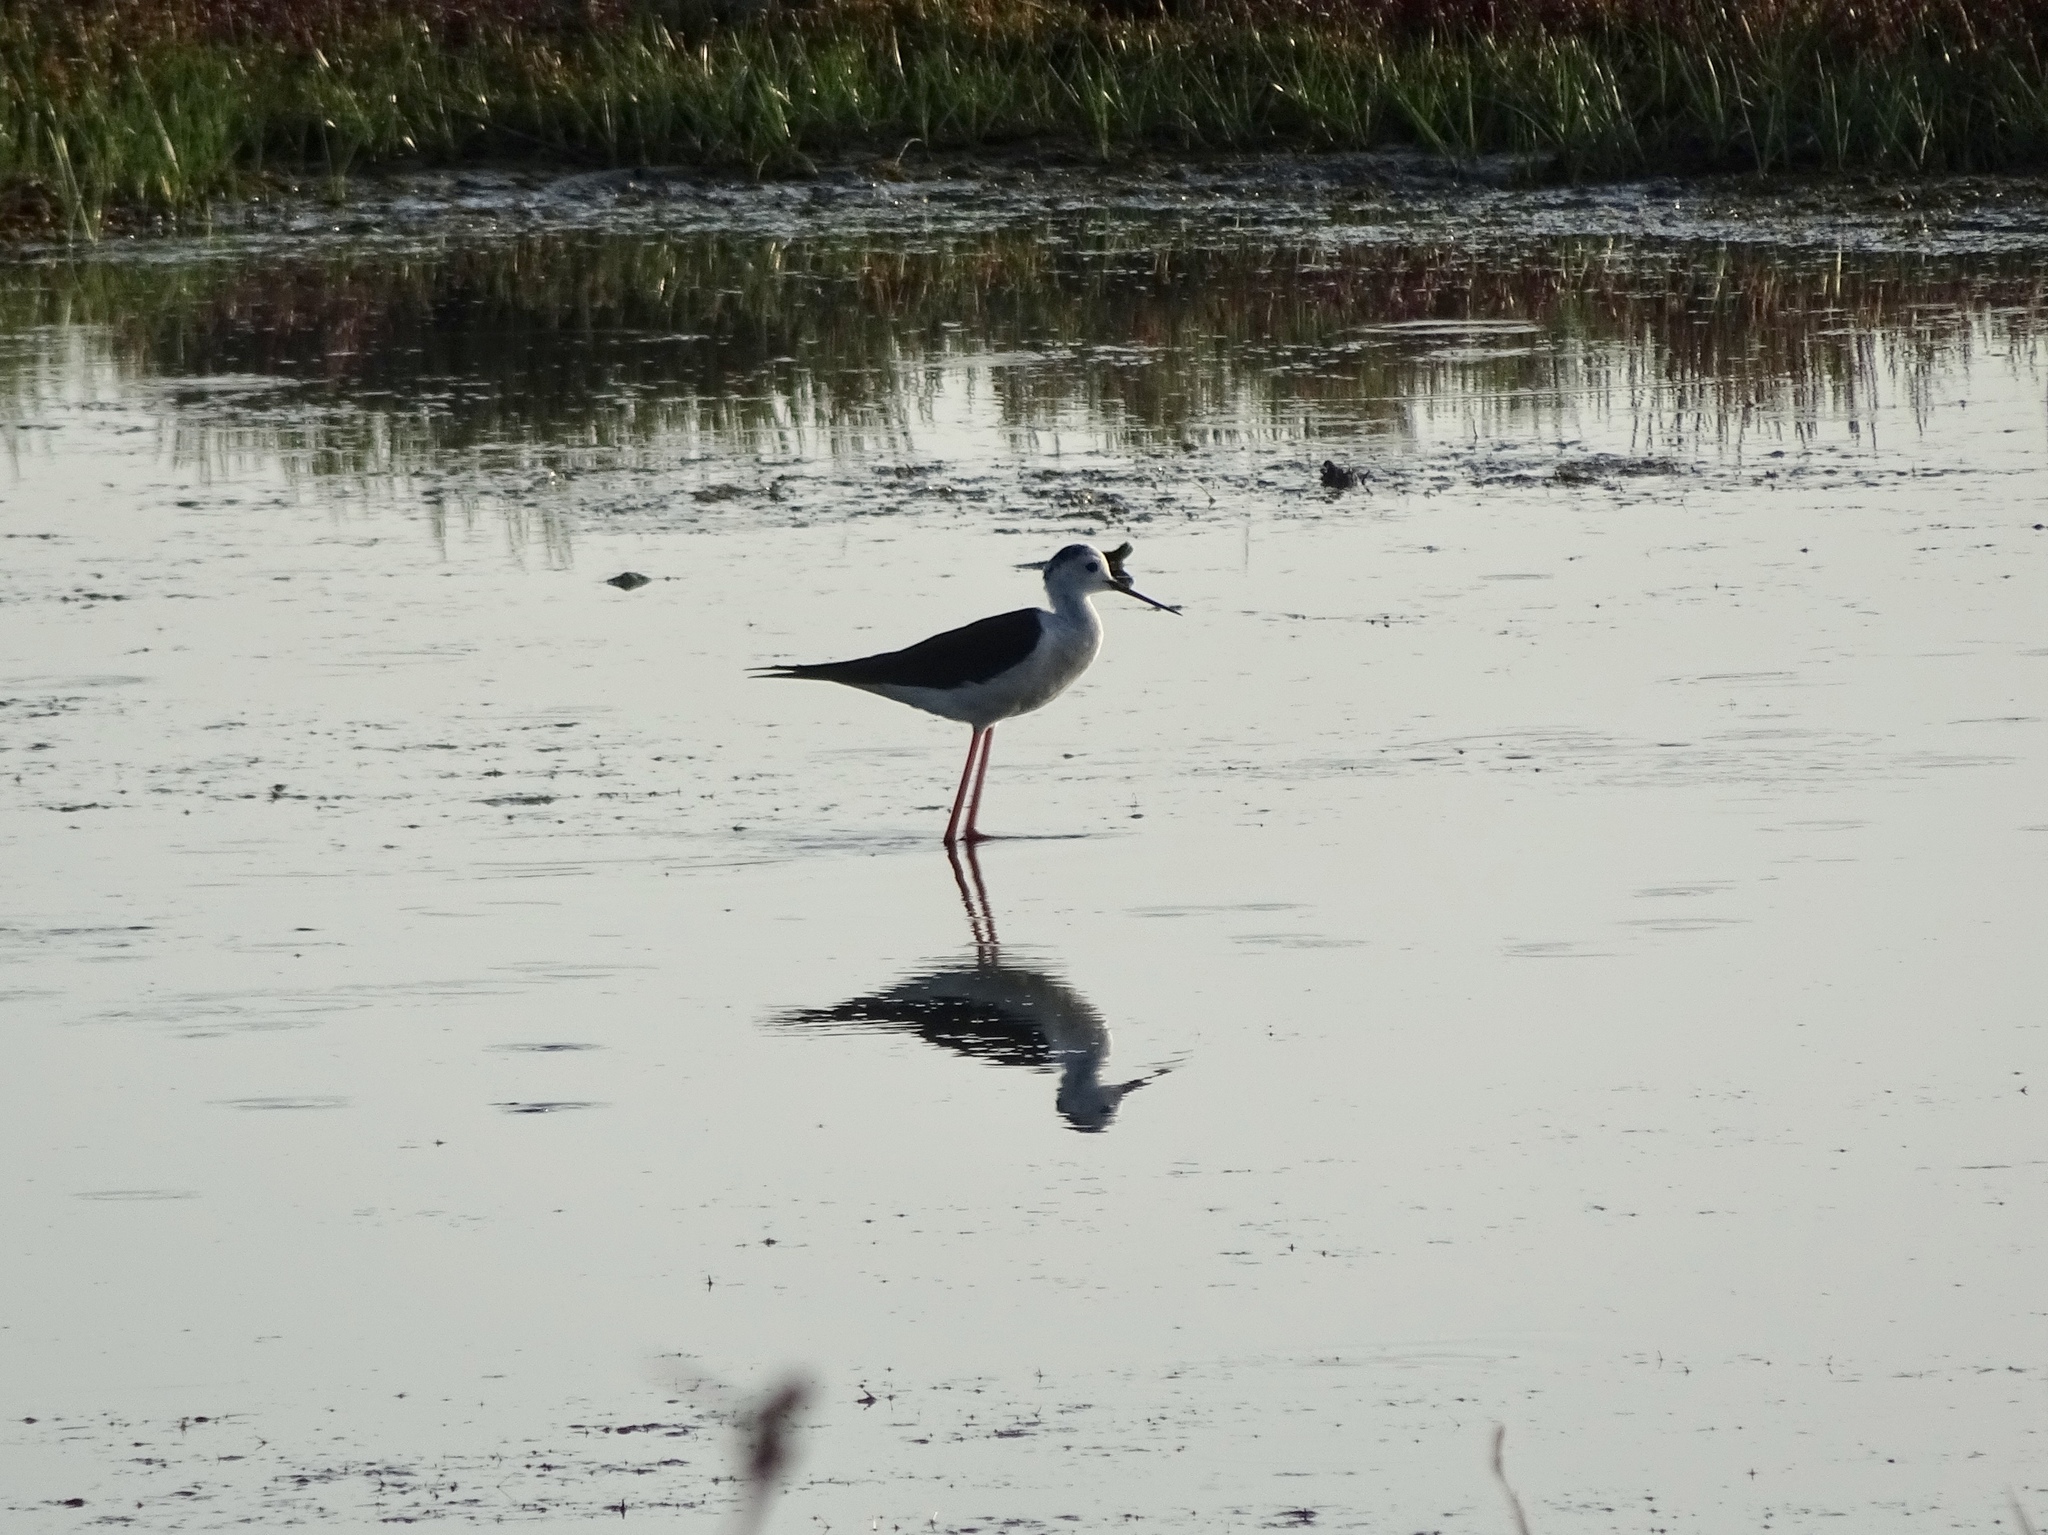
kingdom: Animalia
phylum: Chordata
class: Aves
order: Charadriiformes
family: Recurvirostridae
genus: Himantopus
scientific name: Himantopus himantopus
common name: Black-winged stilt
